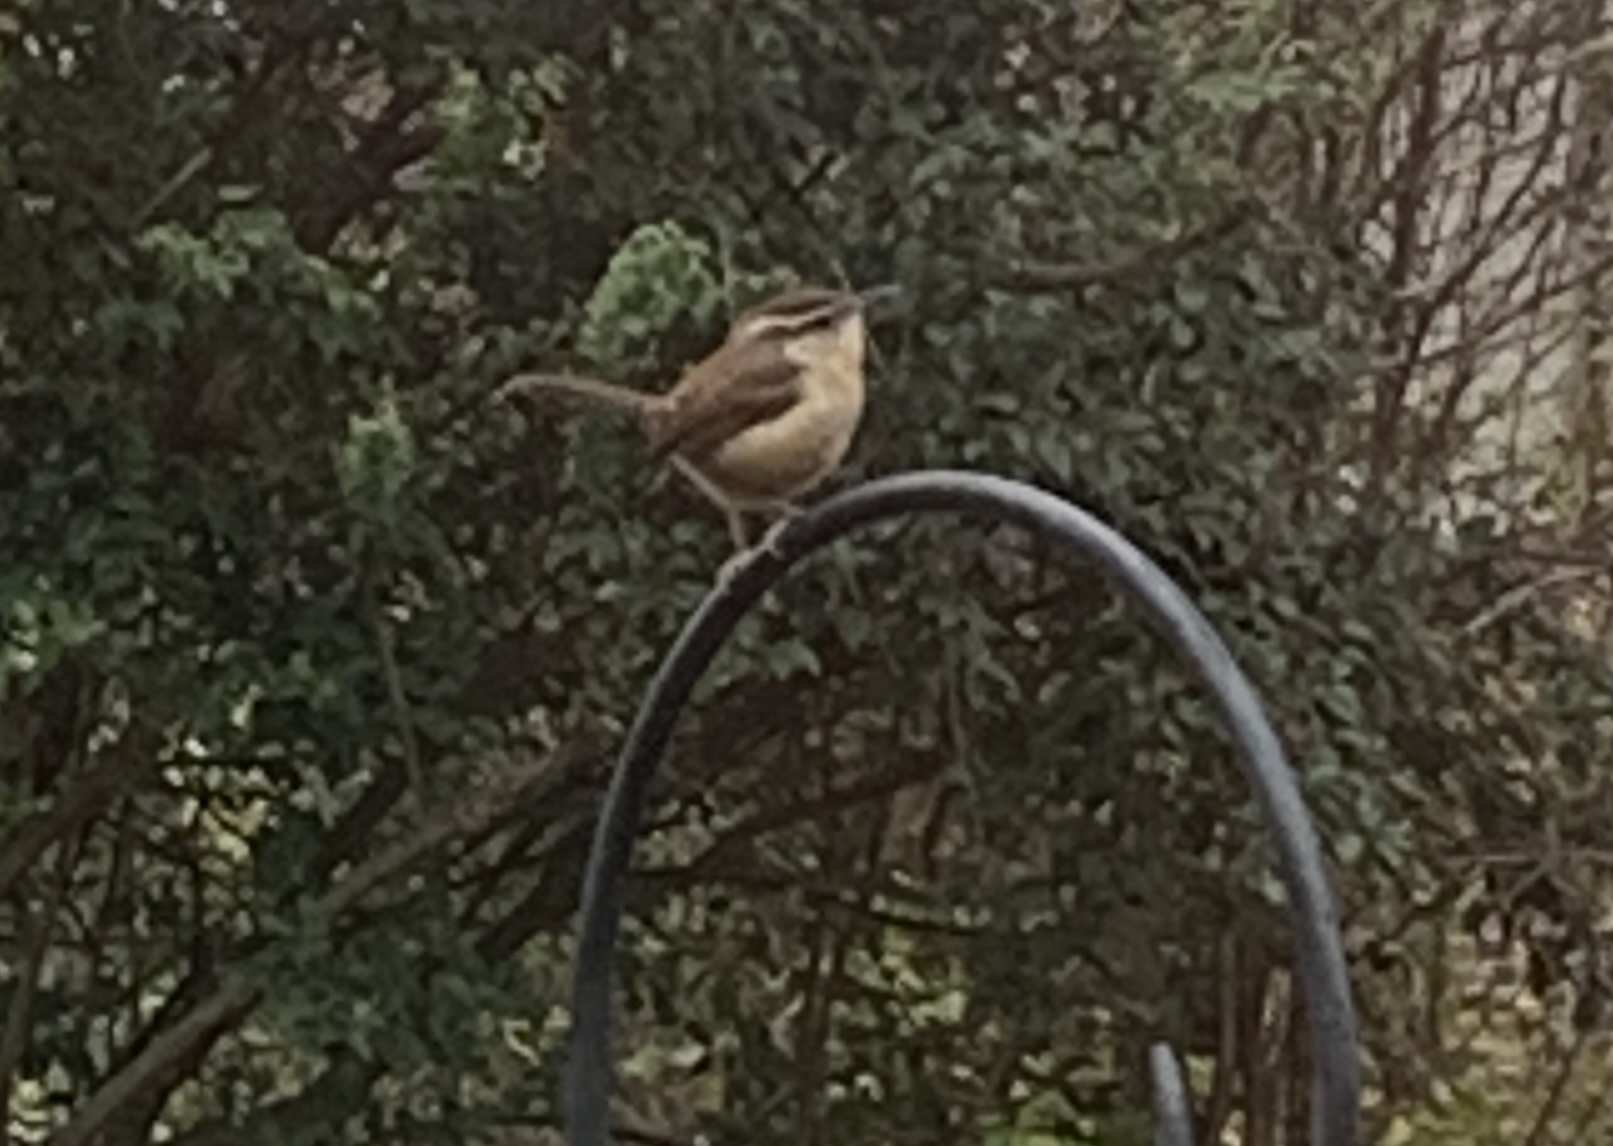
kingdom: Animalia
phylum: Chordata
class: Aves
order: Passeriformes
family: Troglodytidae
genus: Thryothorus
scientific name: Thryothorus ludovicianus
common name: Carolina wren
